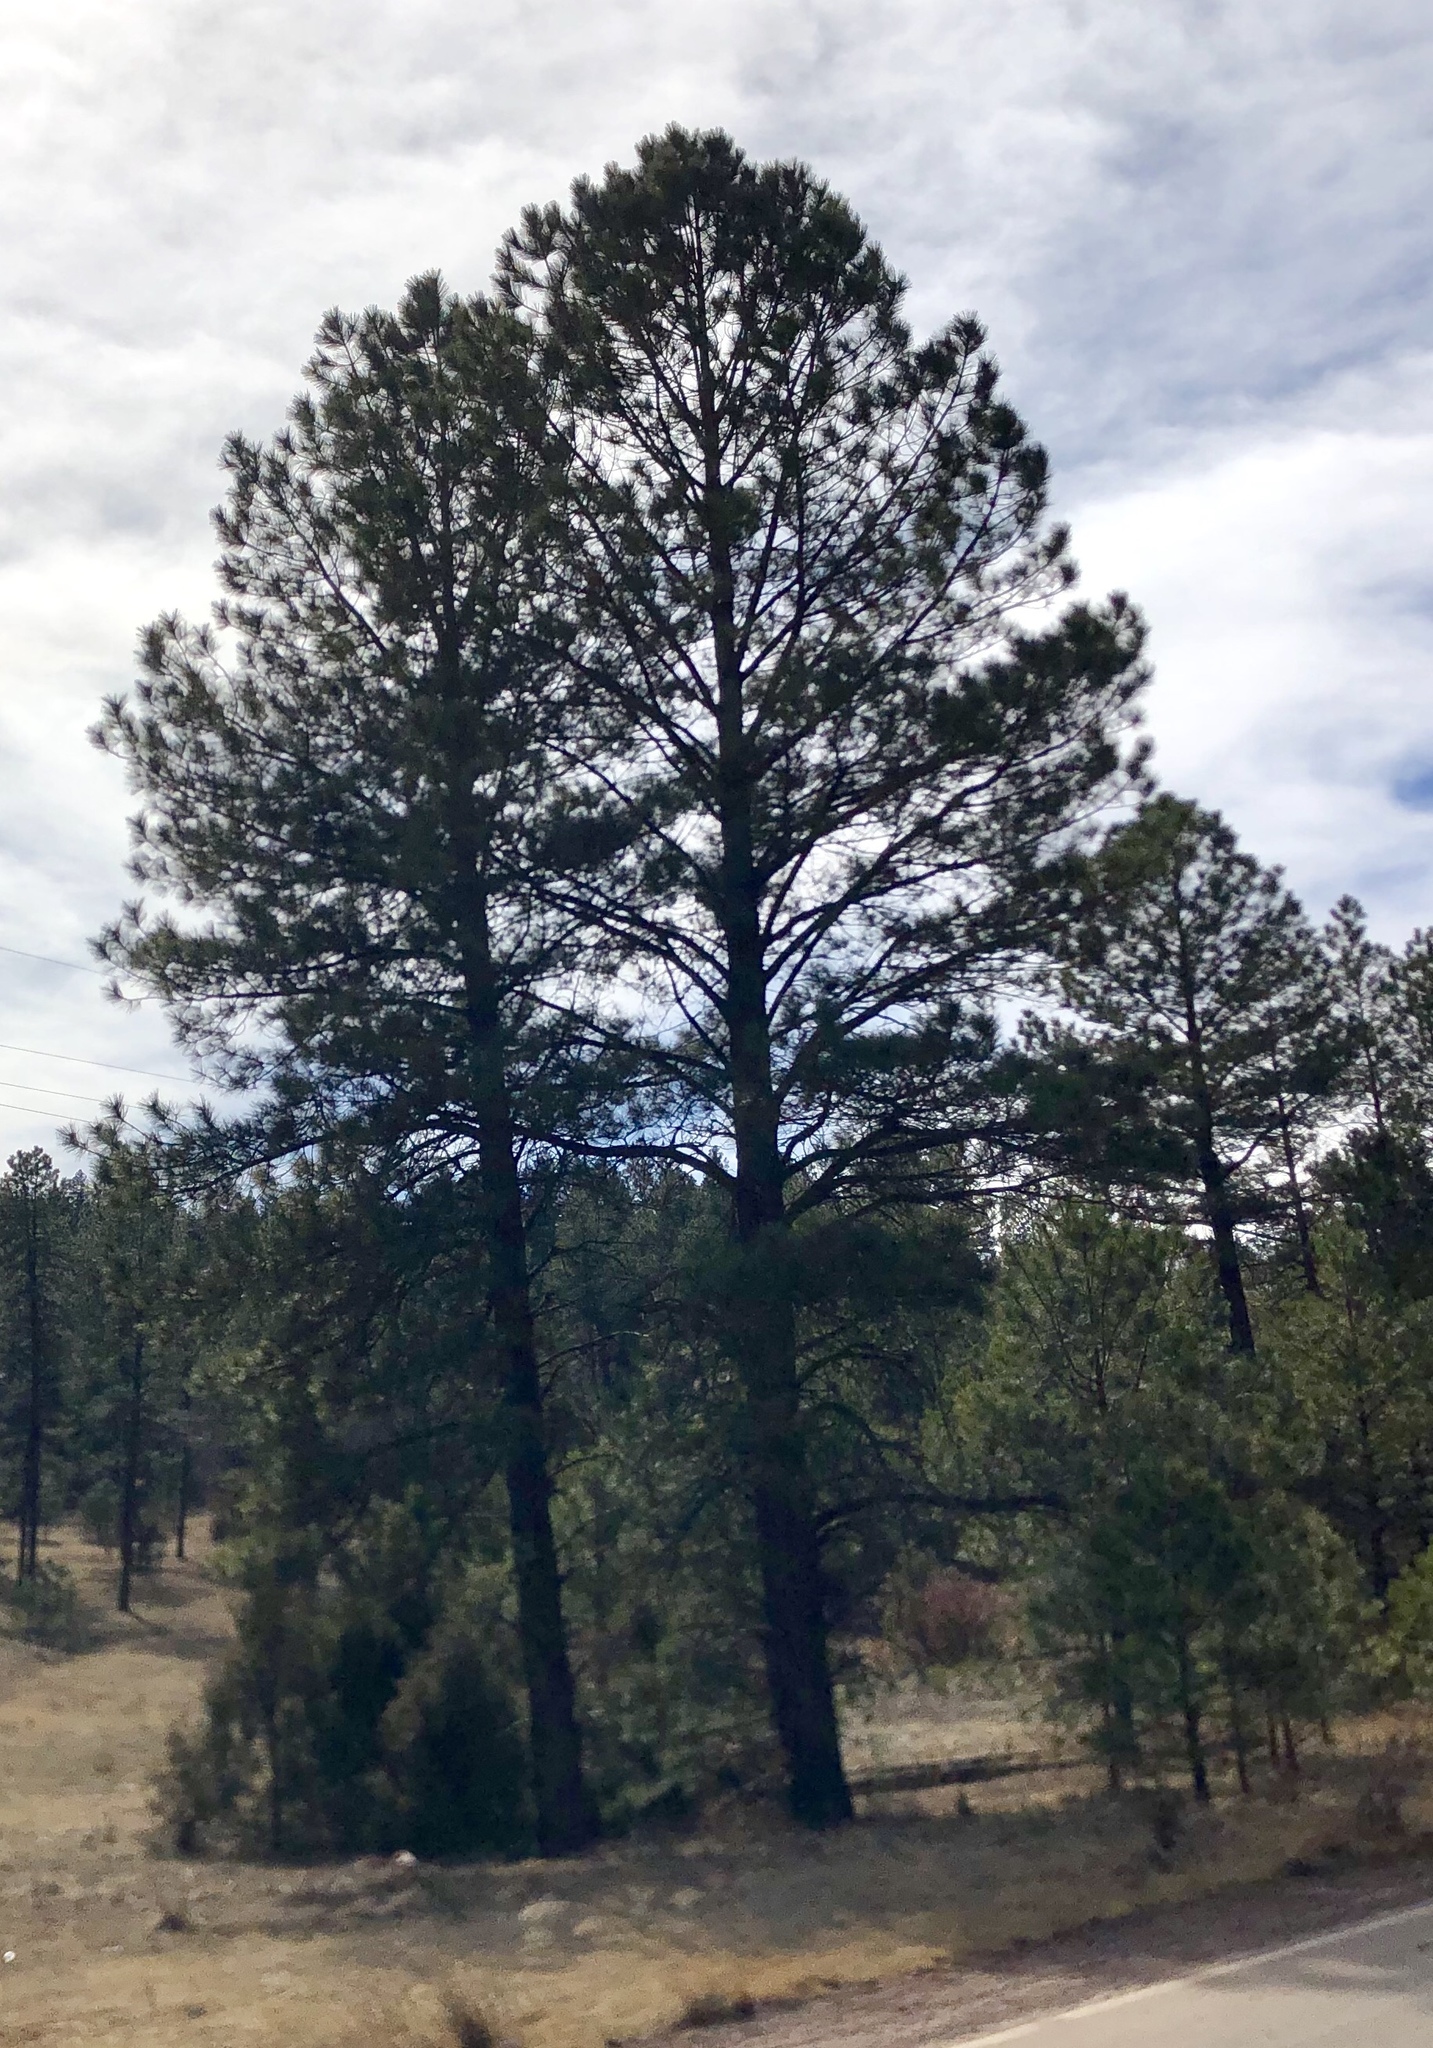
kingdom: Plantae
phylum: Tracheophyta
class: Pinopsida
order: Pinales
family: Pinaceae
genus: Pinus
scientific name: Pinus ponderosa
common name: Western yellow-pine
